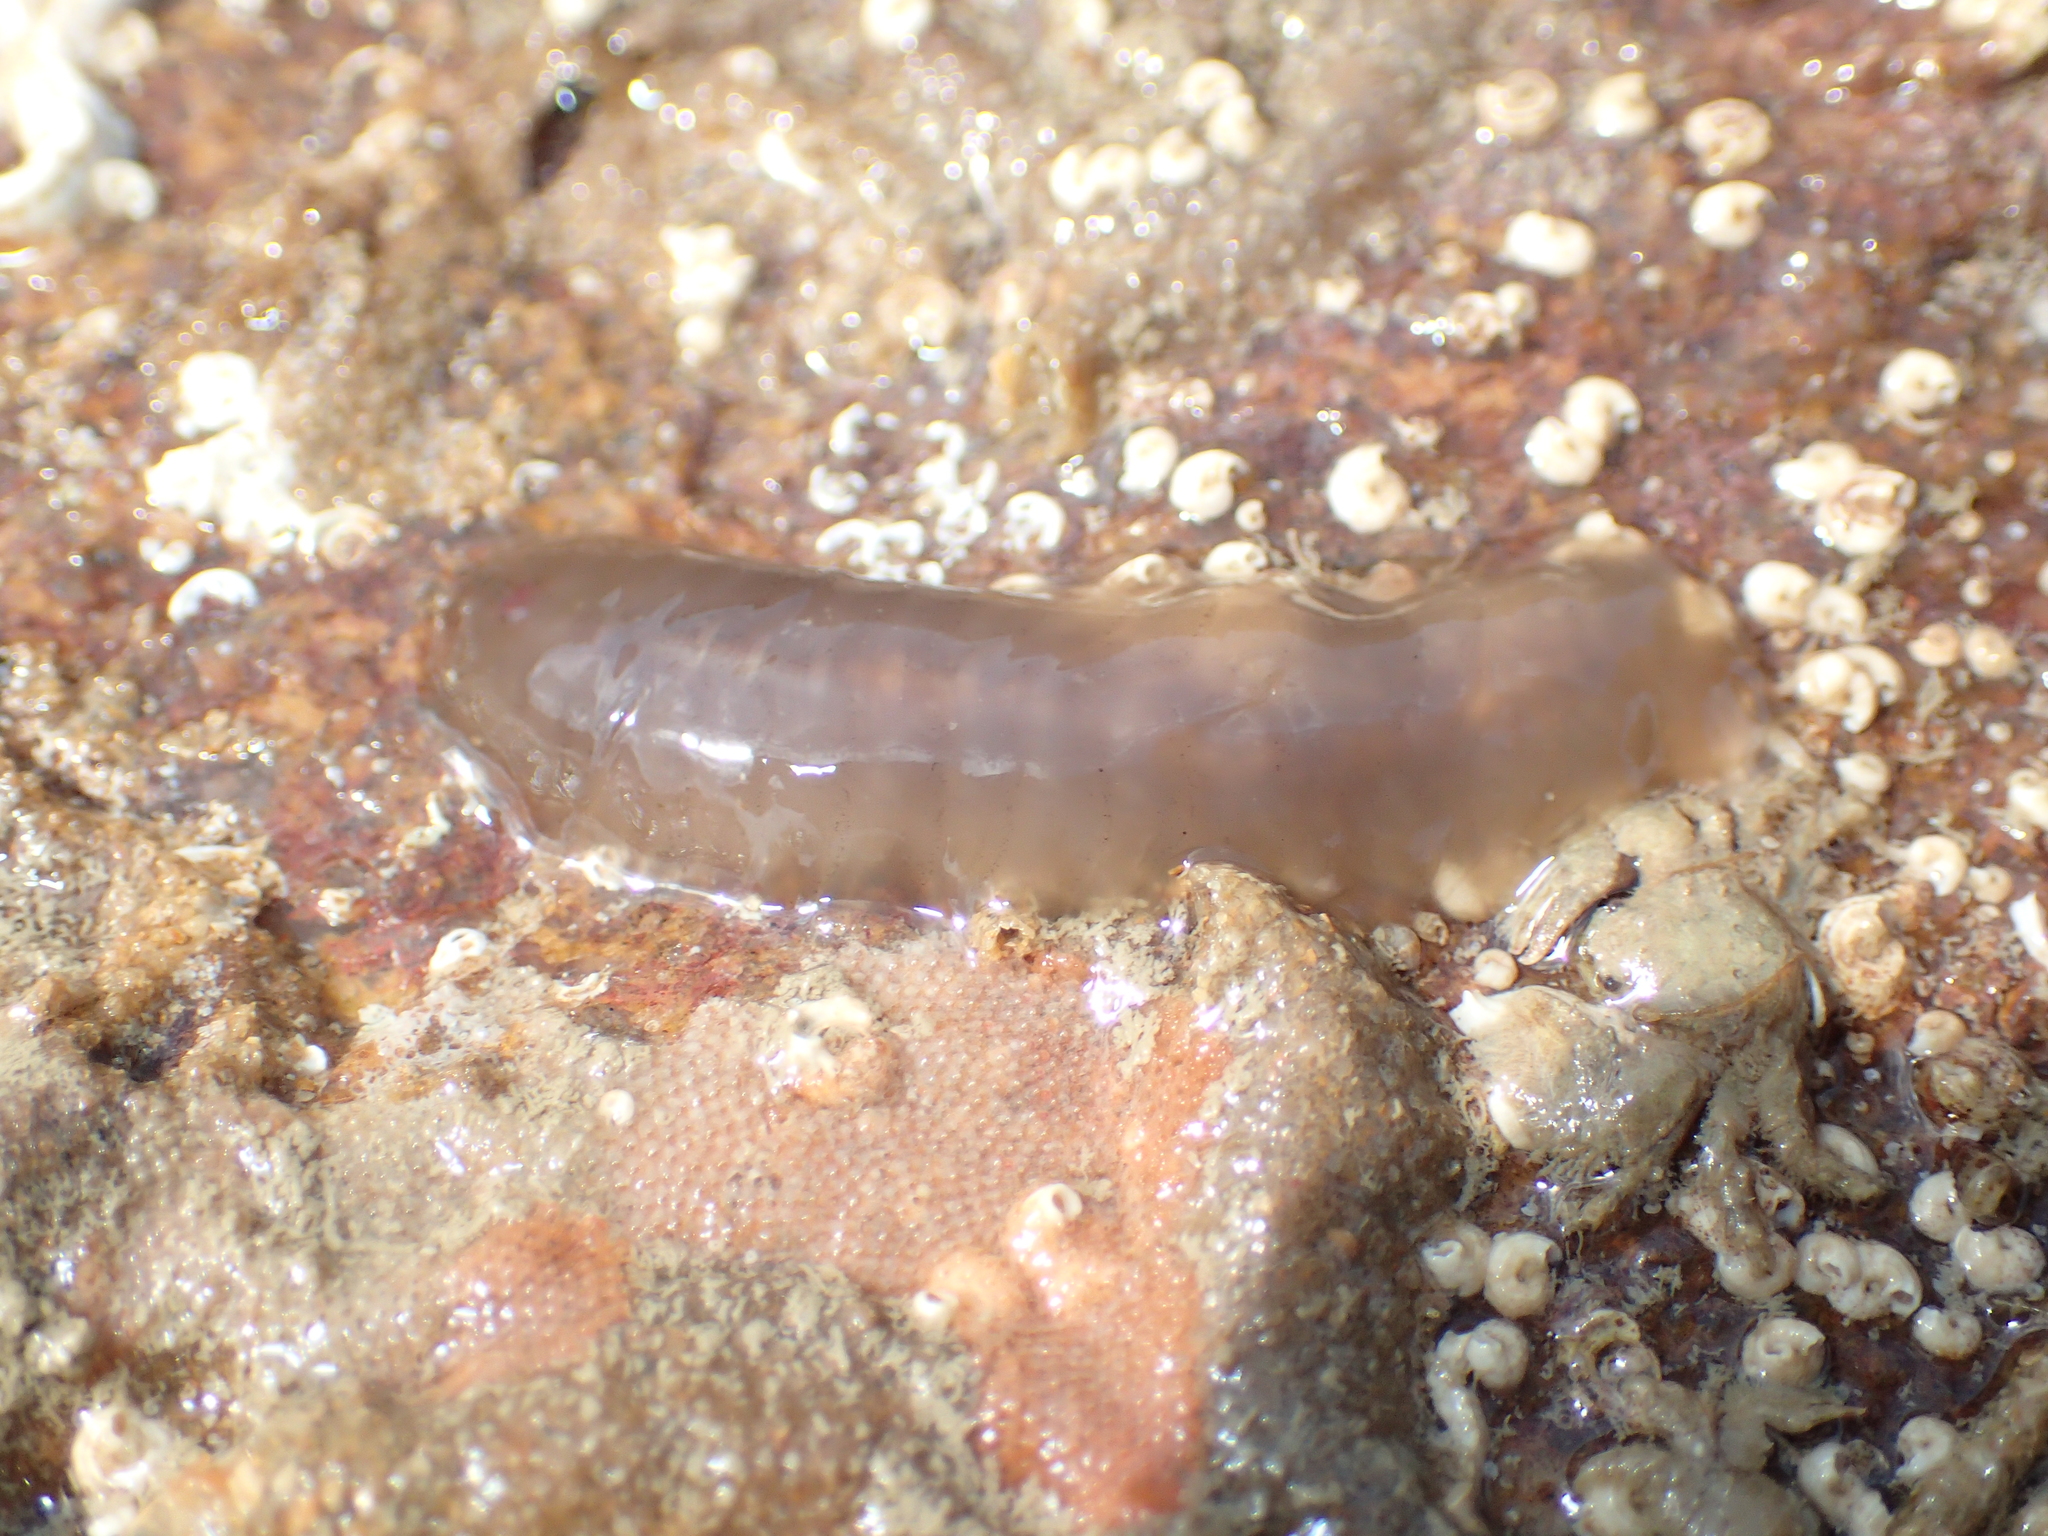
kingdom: Animalia
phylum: Annelida
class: Polychaeta
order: Phyllodocida
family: Polynoidae
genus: Alentia
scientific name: Alentia gelatinosa
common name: Gelatinous scale worm
